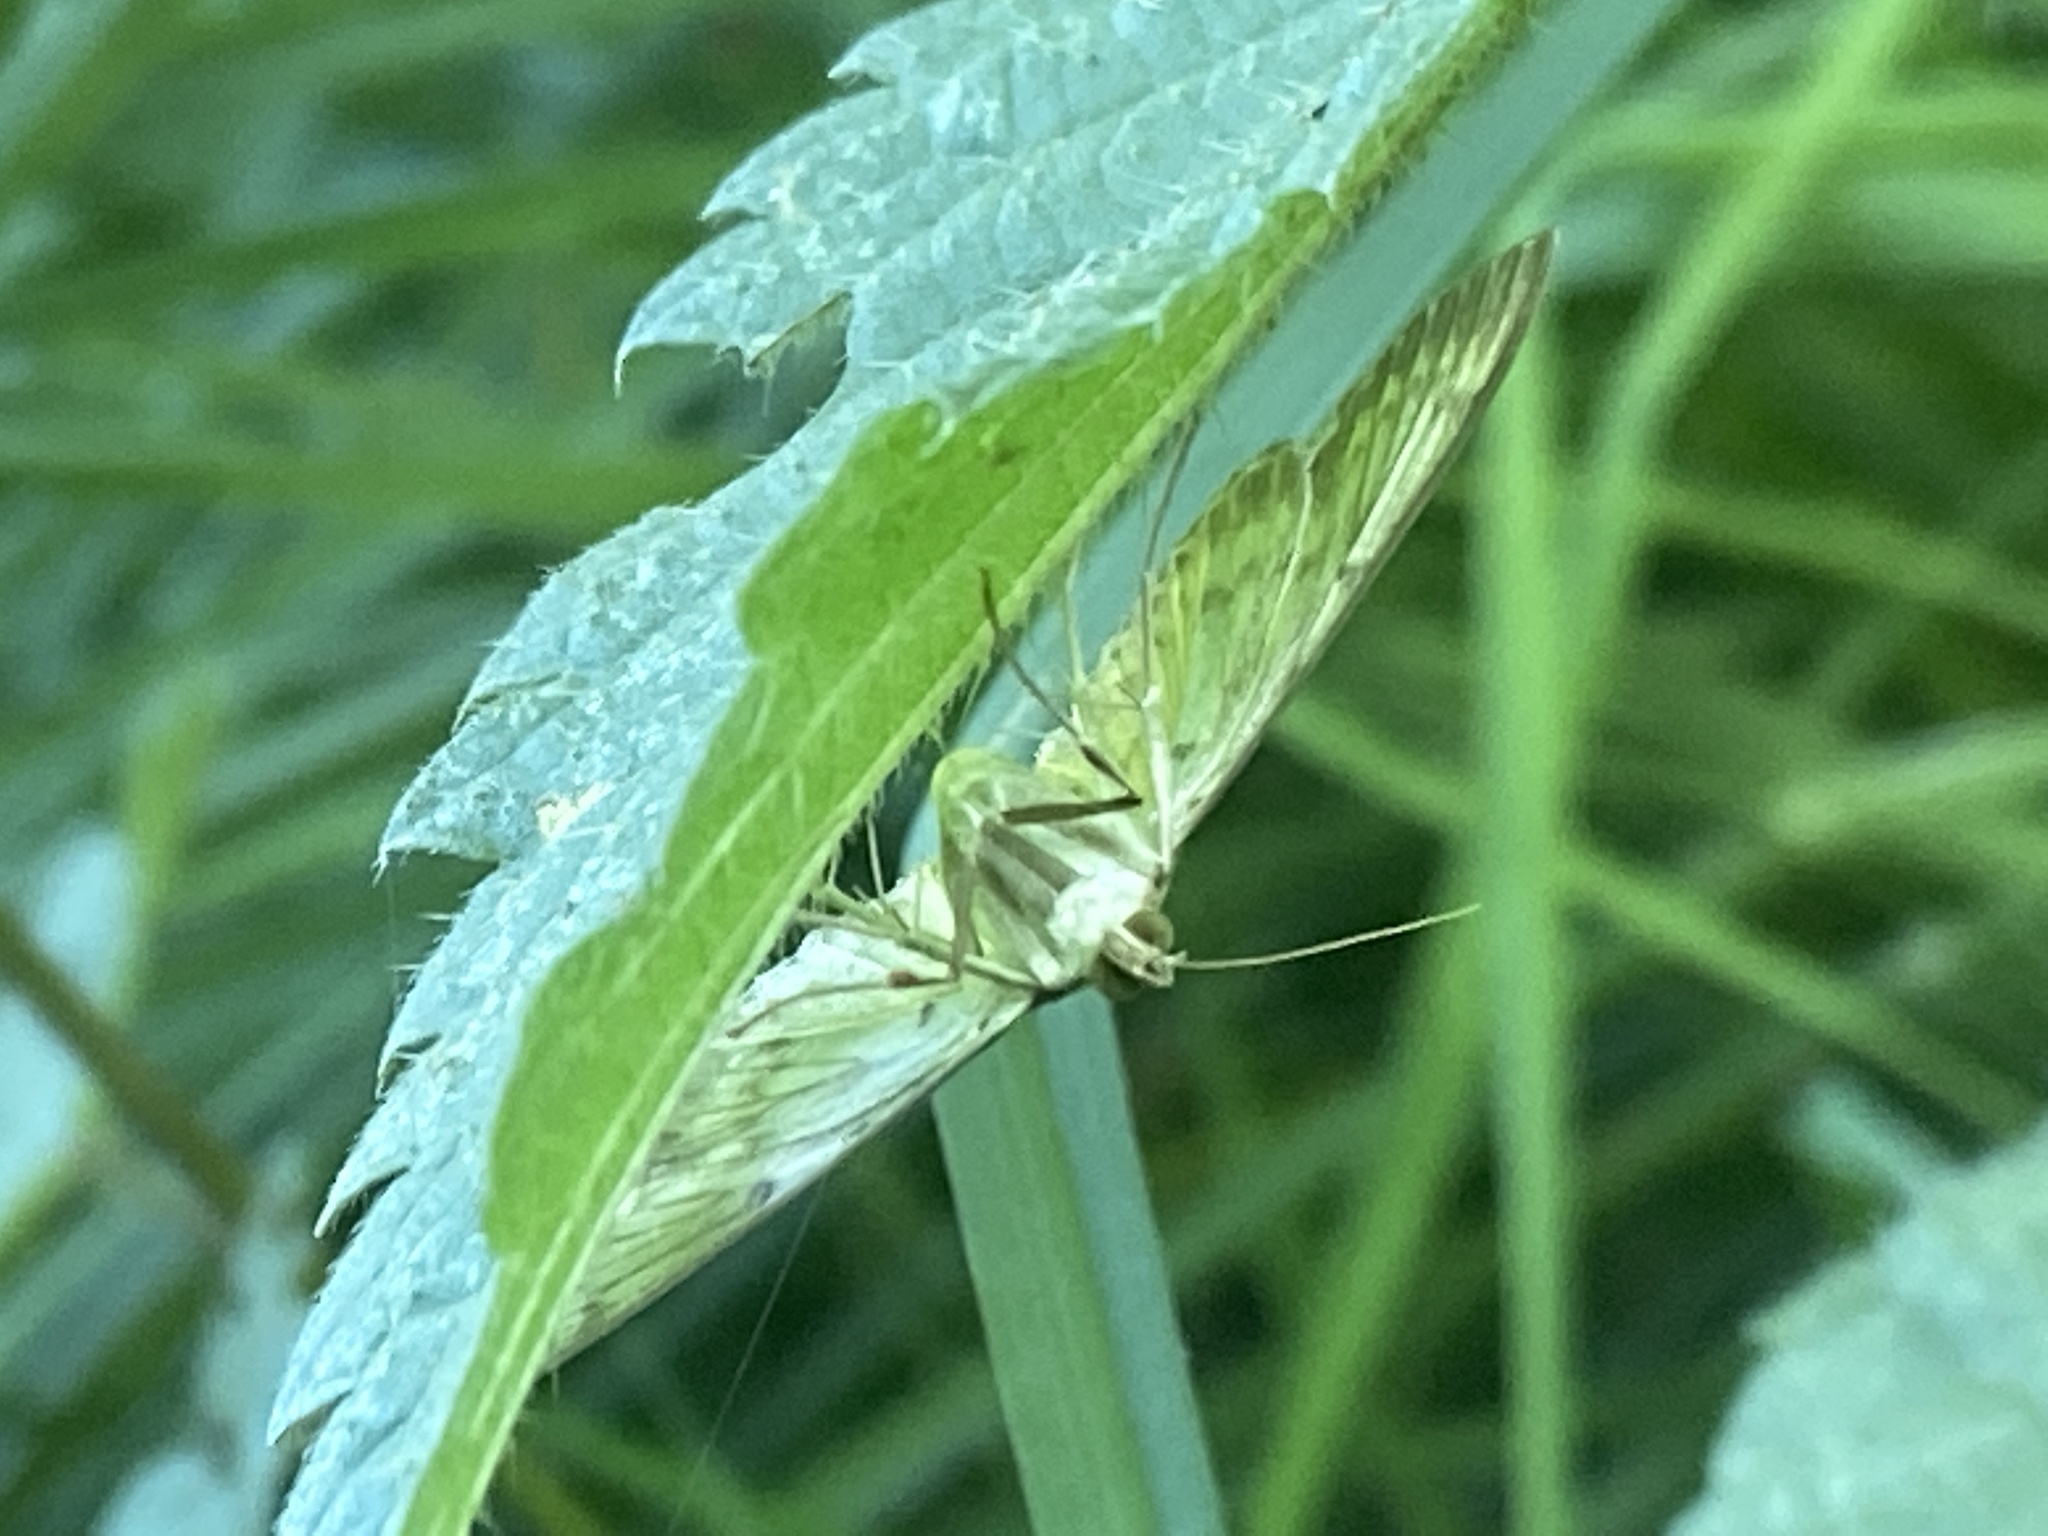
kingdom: Animalia
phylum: Arthropoda
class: Insecta
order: Lepidoptera
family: Crambidae
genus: Patania
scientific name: Patania ruralis
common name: Mother of pearl
